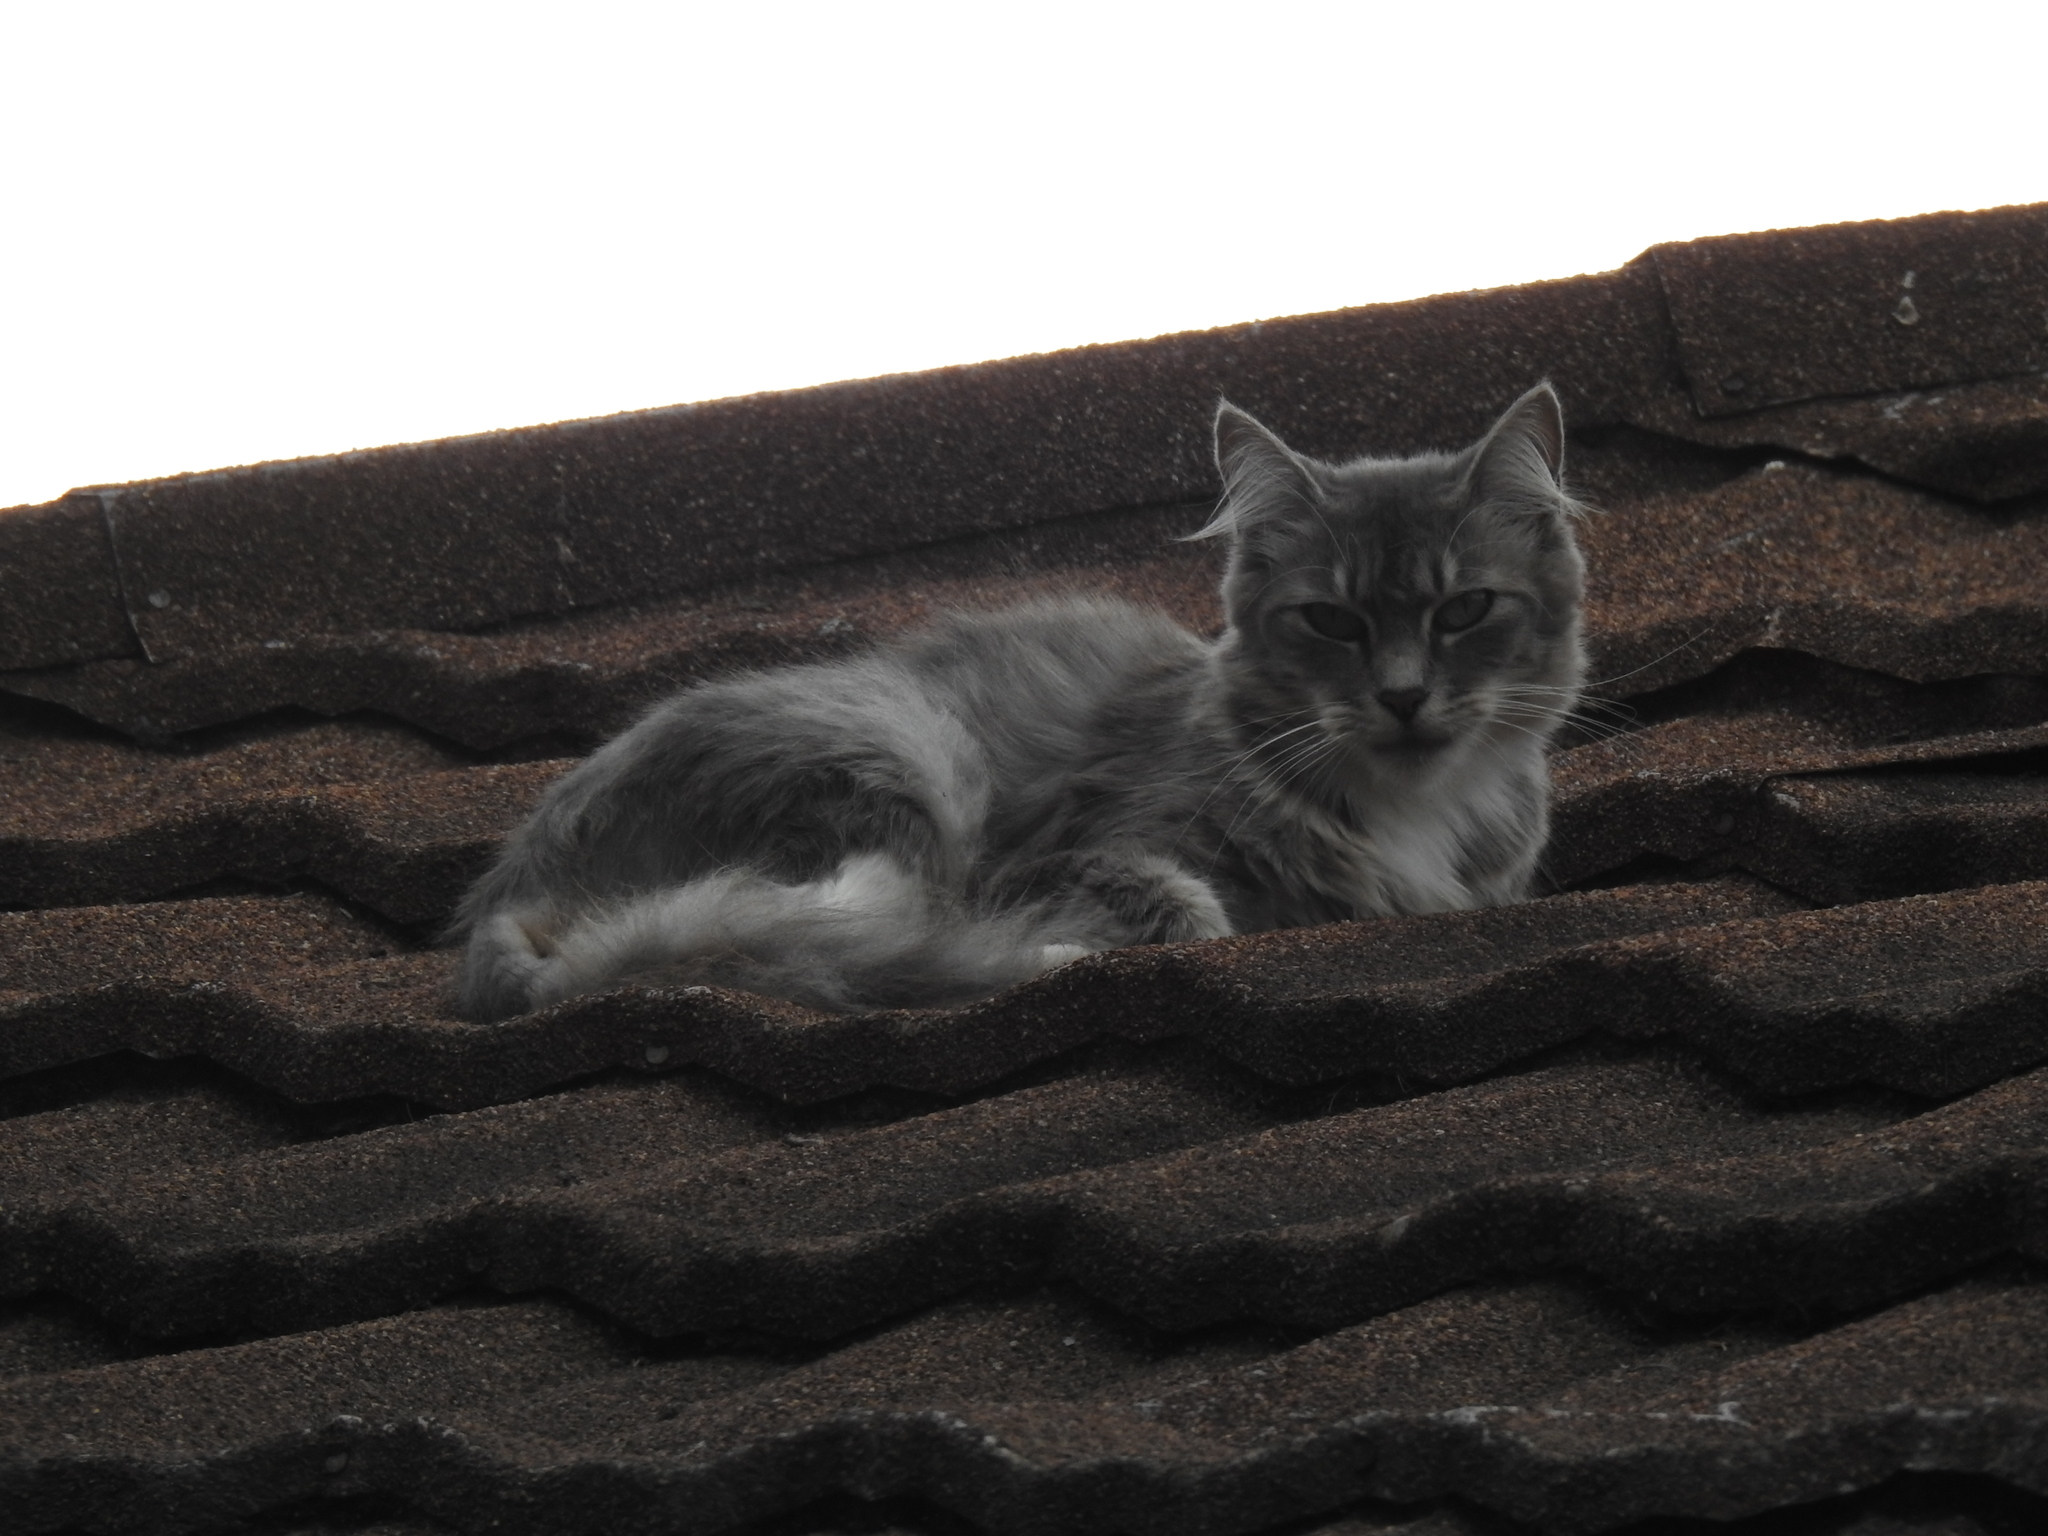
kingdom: Animalia
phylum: Chordata
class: Mammalia
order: Carnivora
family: Felidae
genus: Felis
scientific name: Felis catus
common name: Domestic cat
